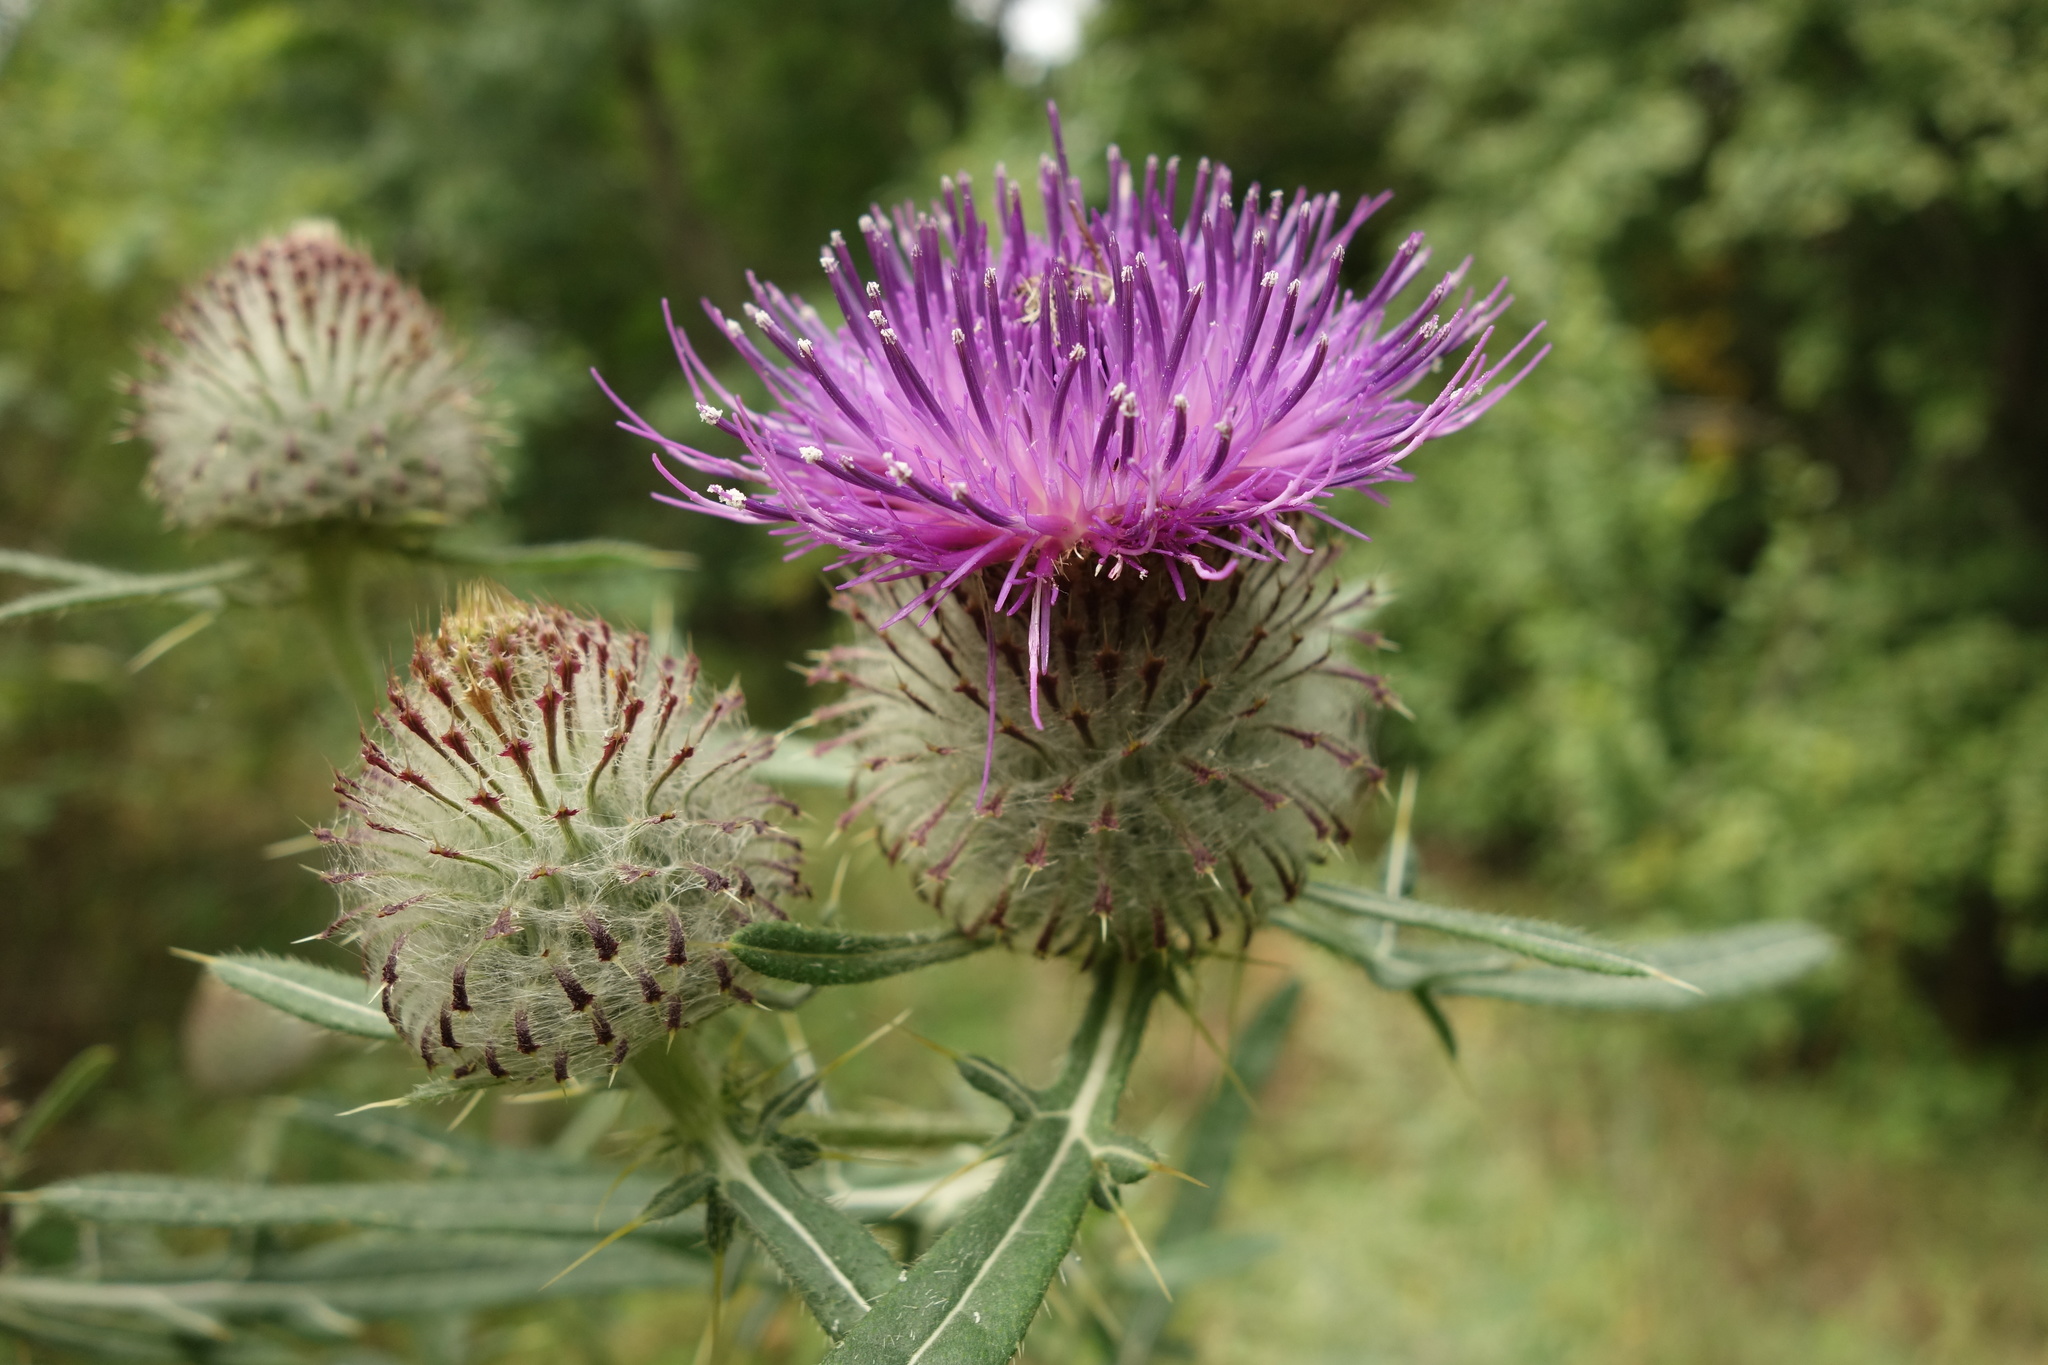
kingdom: Plantae
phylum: Tracheophyta
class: Magnoliopsida
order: Asterales
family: Asteraceae
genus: Lophiolepis
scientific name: Lophiolepis decussata
